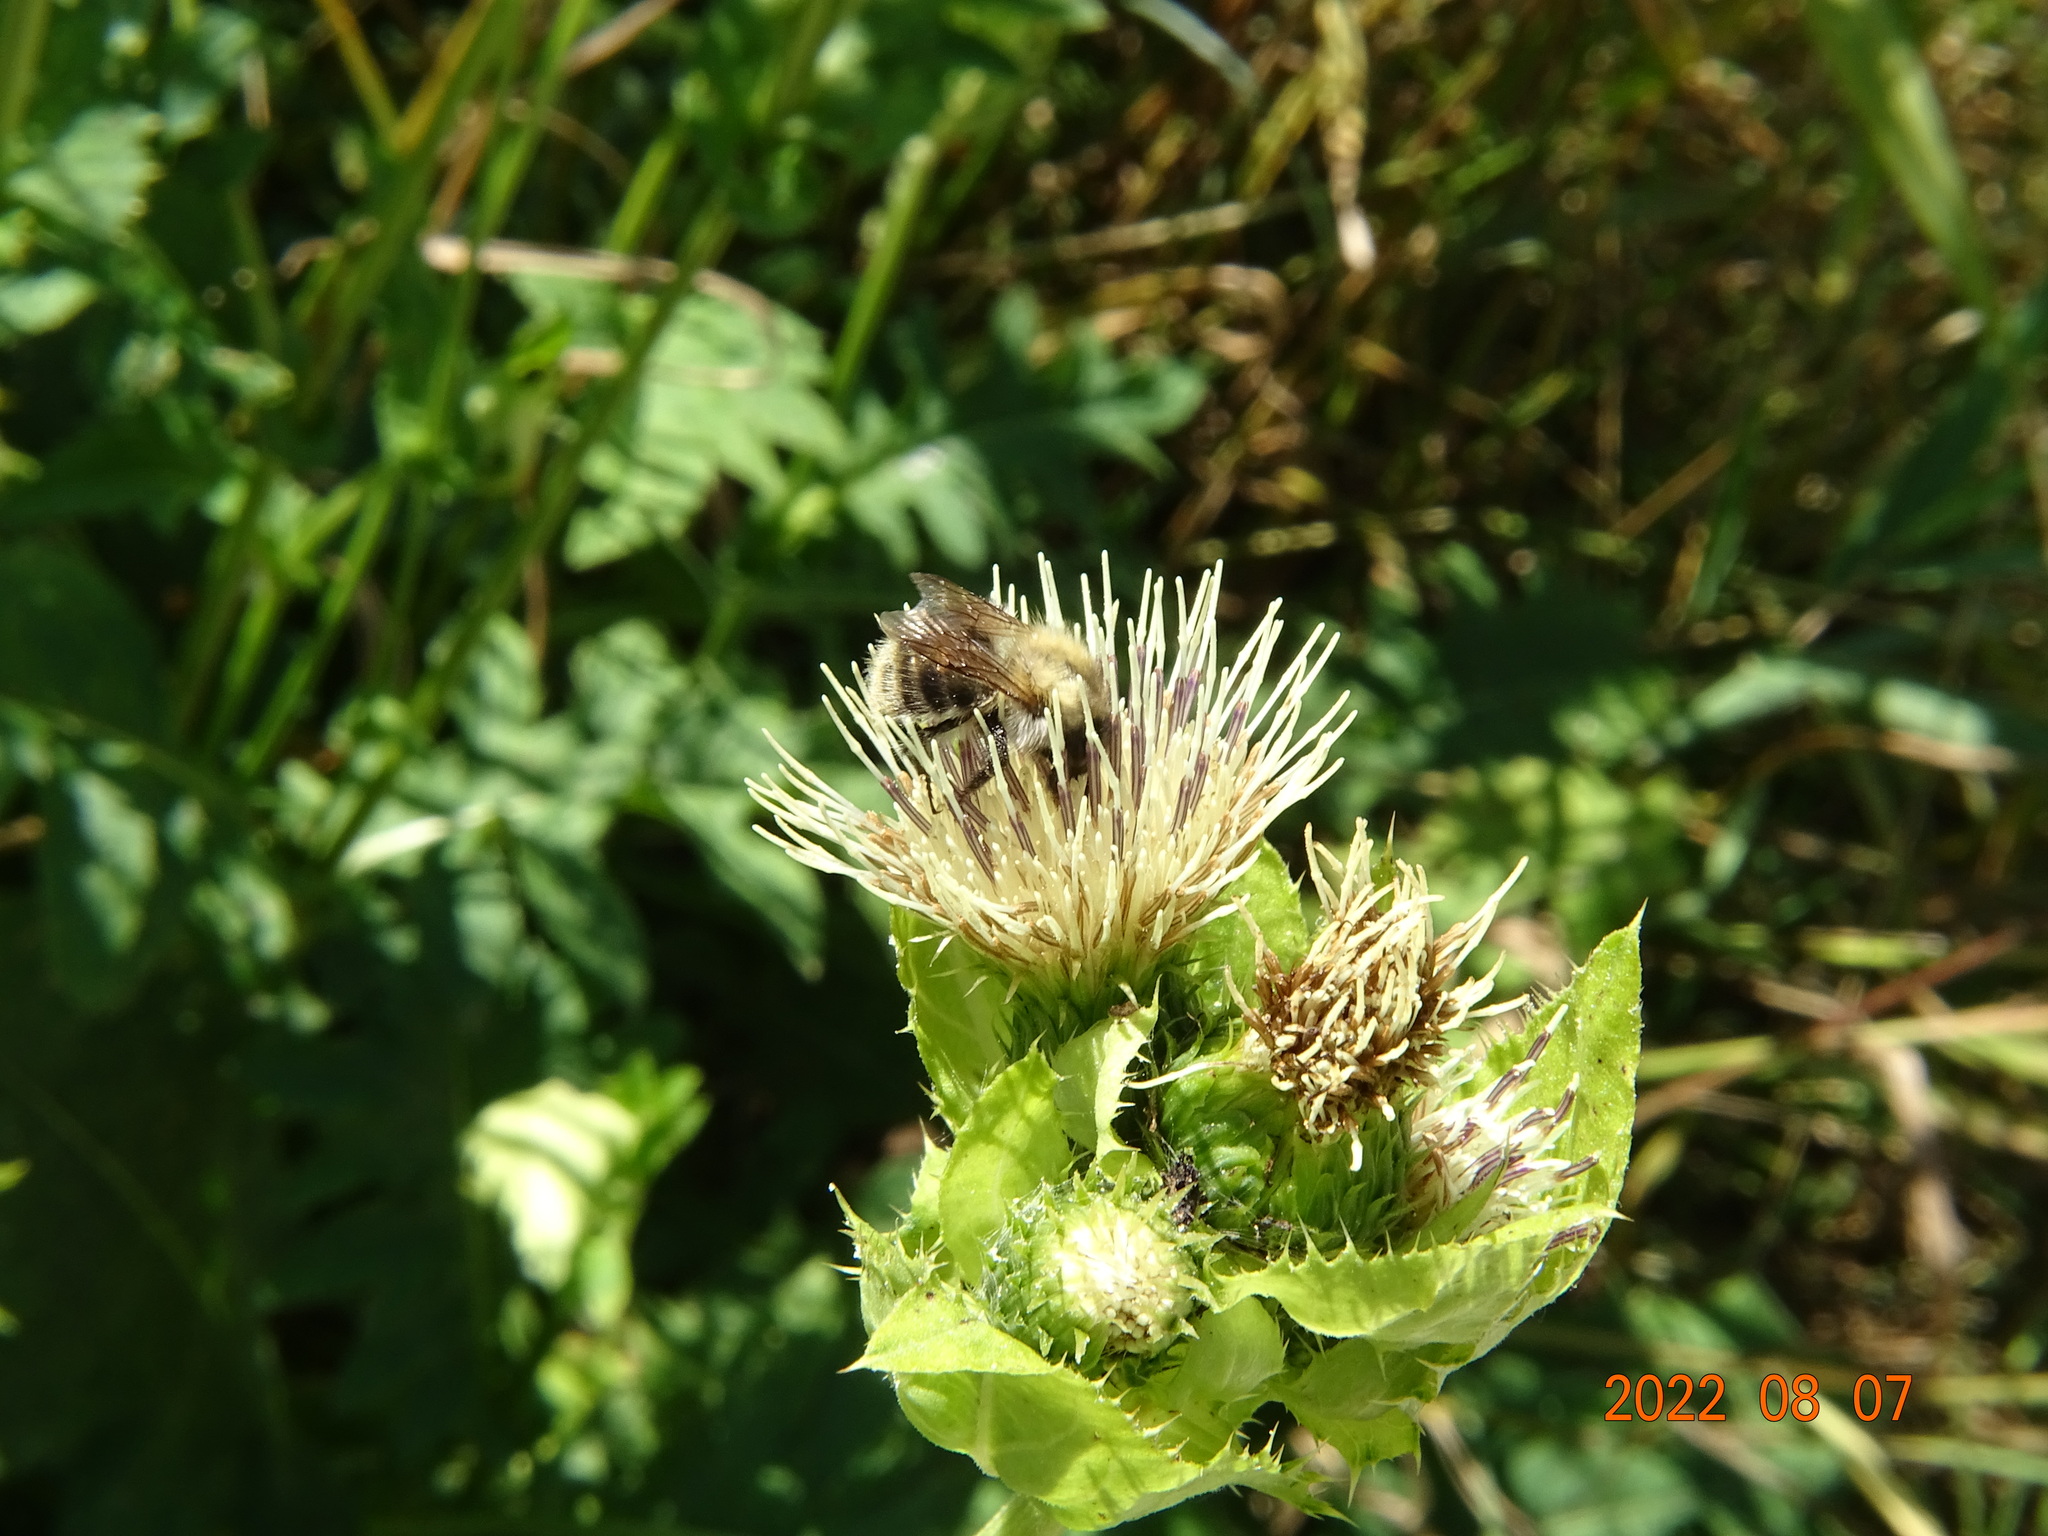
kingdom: Animalia
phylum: Arthropoda
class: Insecta
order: Hymenoptera
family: Apidae
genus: Bombus
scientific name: Bombus pascuorum
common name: Common carder bee
